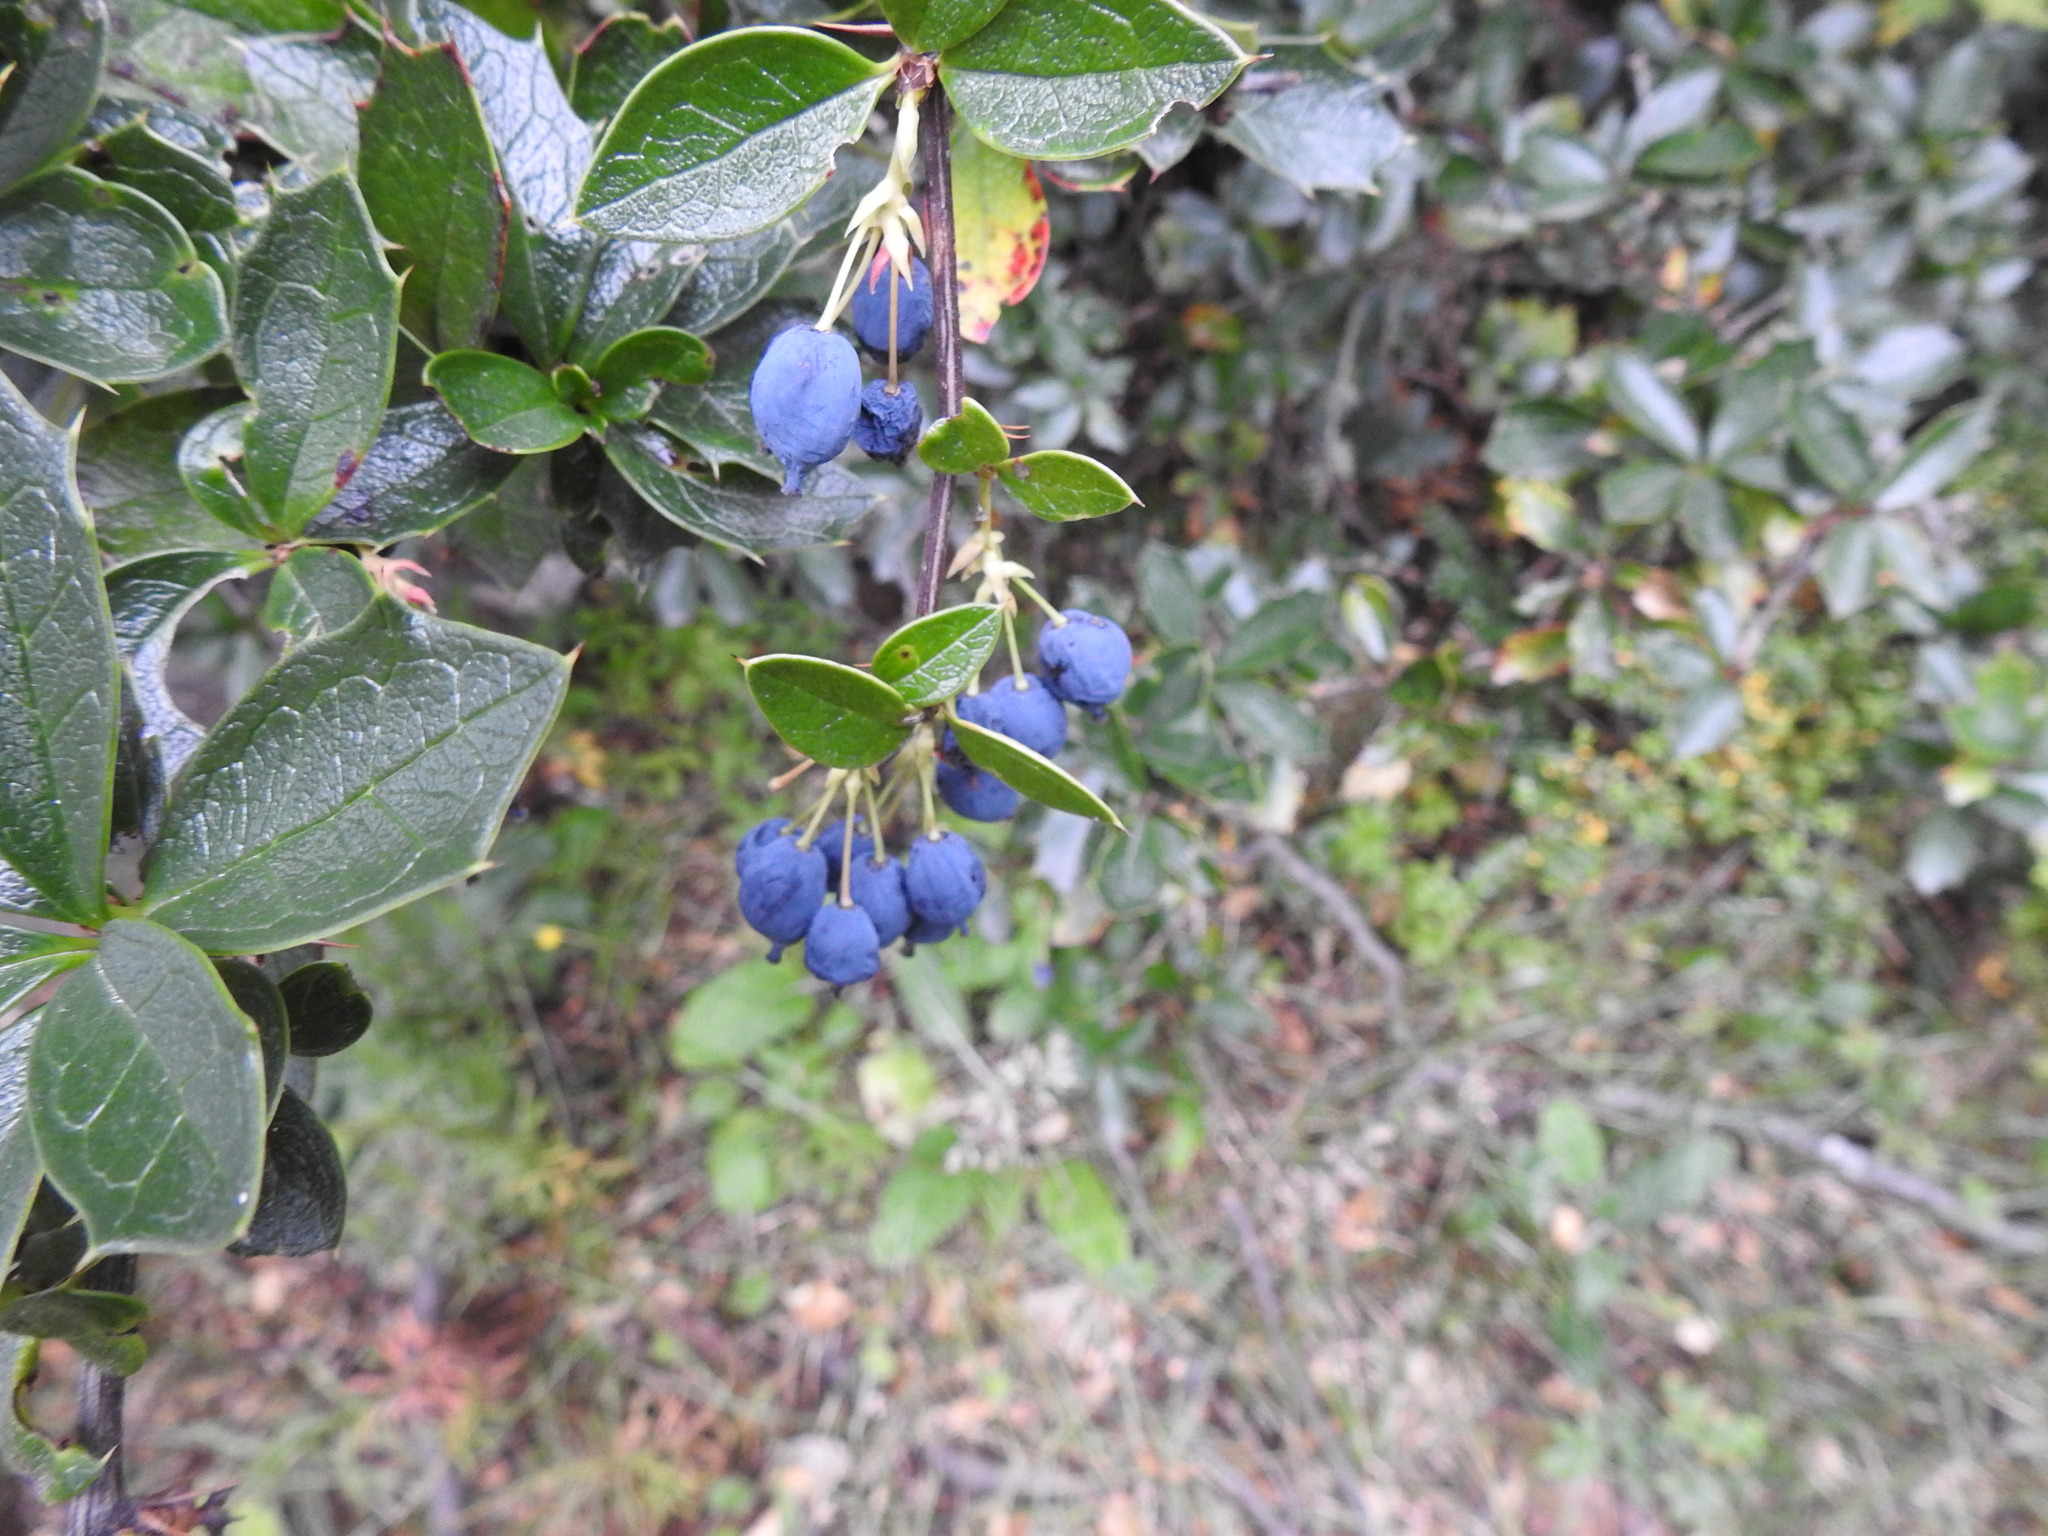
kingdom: Plantae
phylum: Tracheophyta
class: Magnoliopsida
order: Ranunculales
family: Berberidaceae
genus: Berberis
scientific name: Berberis ilicifolia
